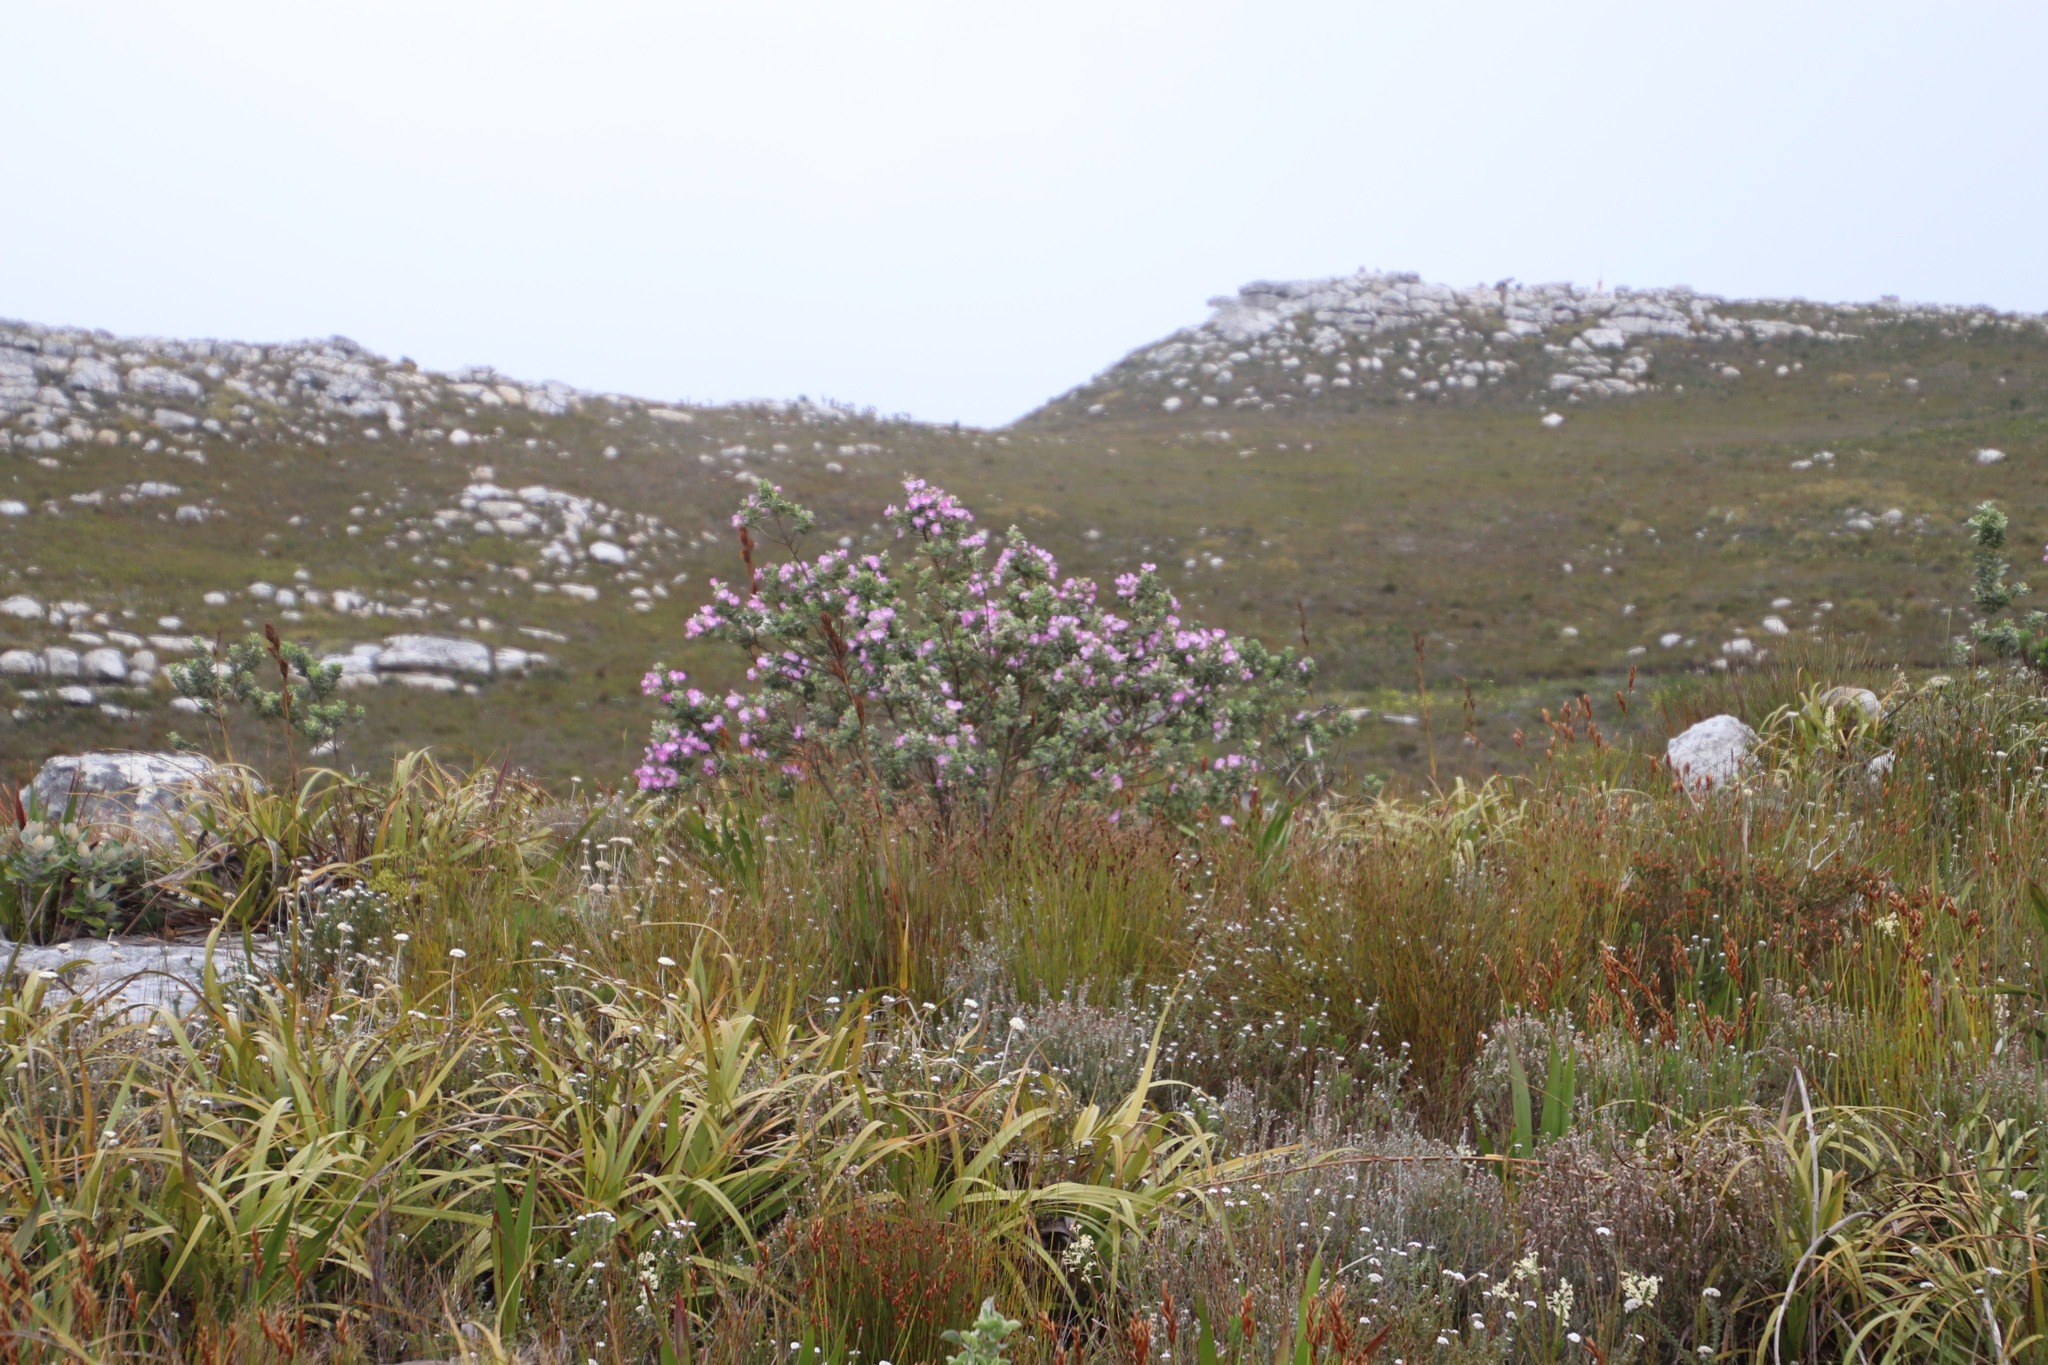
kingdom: Plantae
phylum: Tracheophyta
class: Magnoliopsida
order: Fabales
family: Fabaceae
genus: Podalyria
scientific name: Podalyria calyptrata
